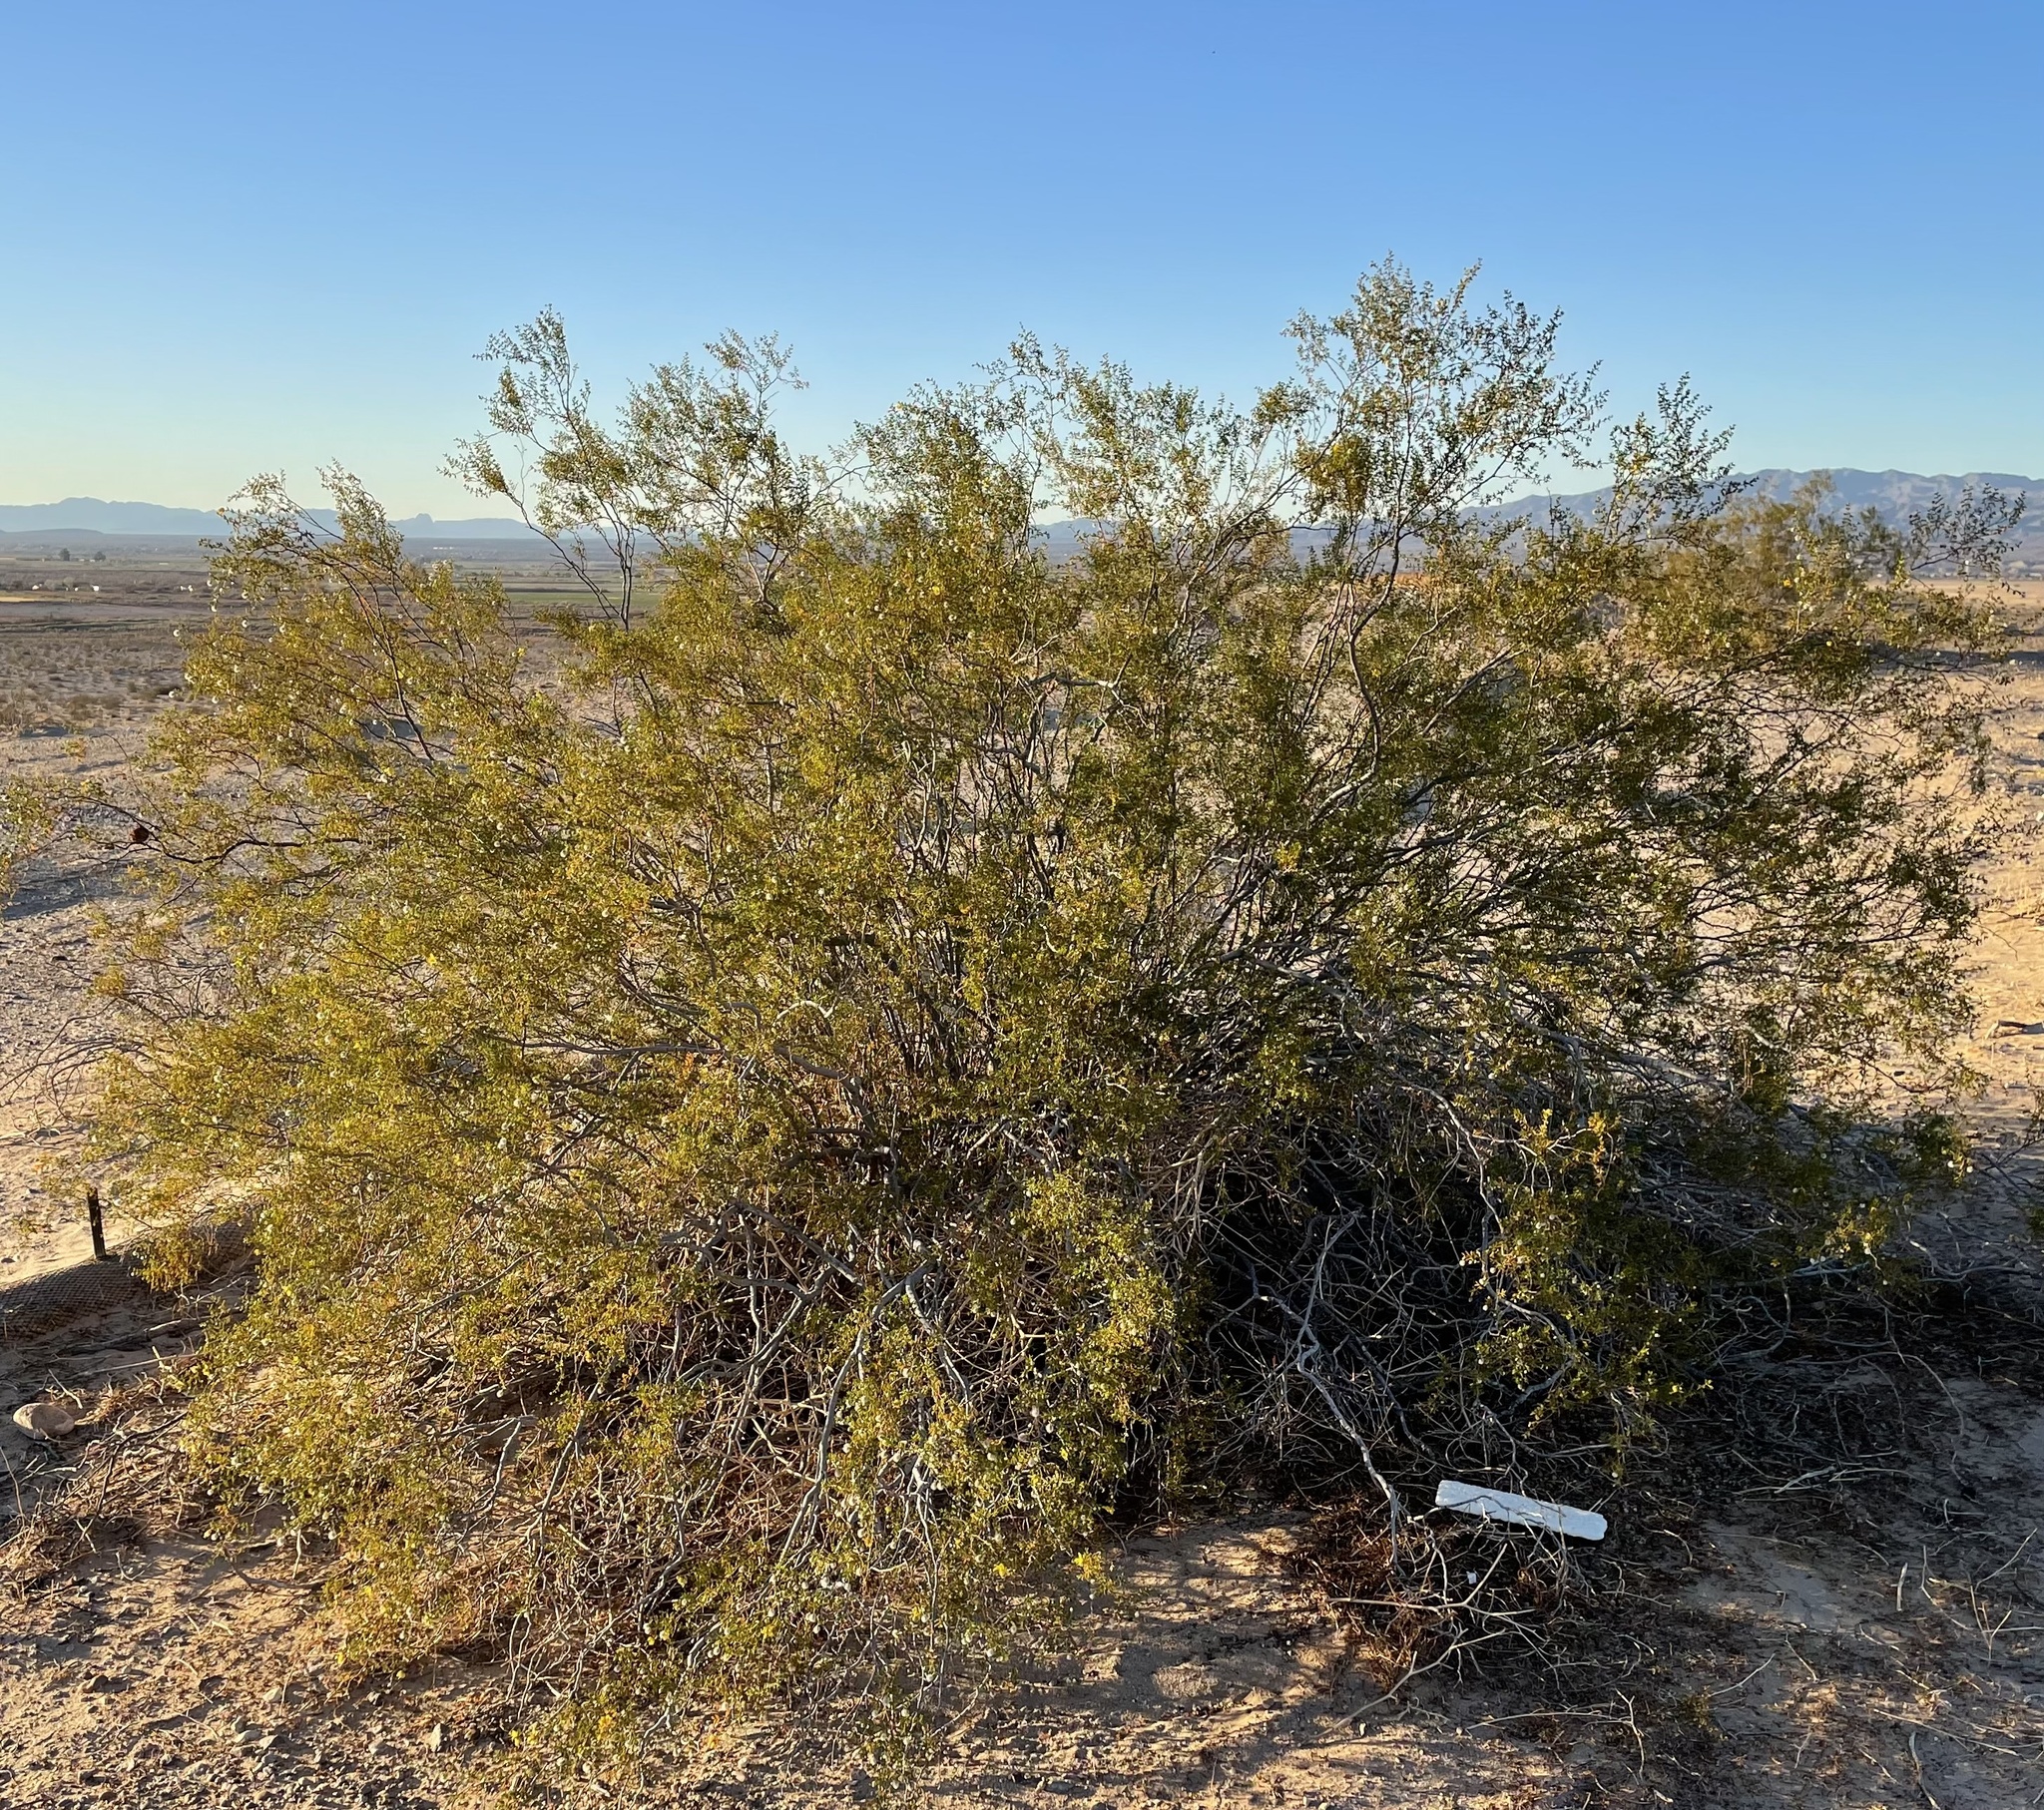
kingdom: Plantae
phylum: Tracheophyta
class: Magnoliopsida
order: Zygophyllales
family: Zygophyllaceae
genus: Larrea
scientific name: Larrea tridentata
